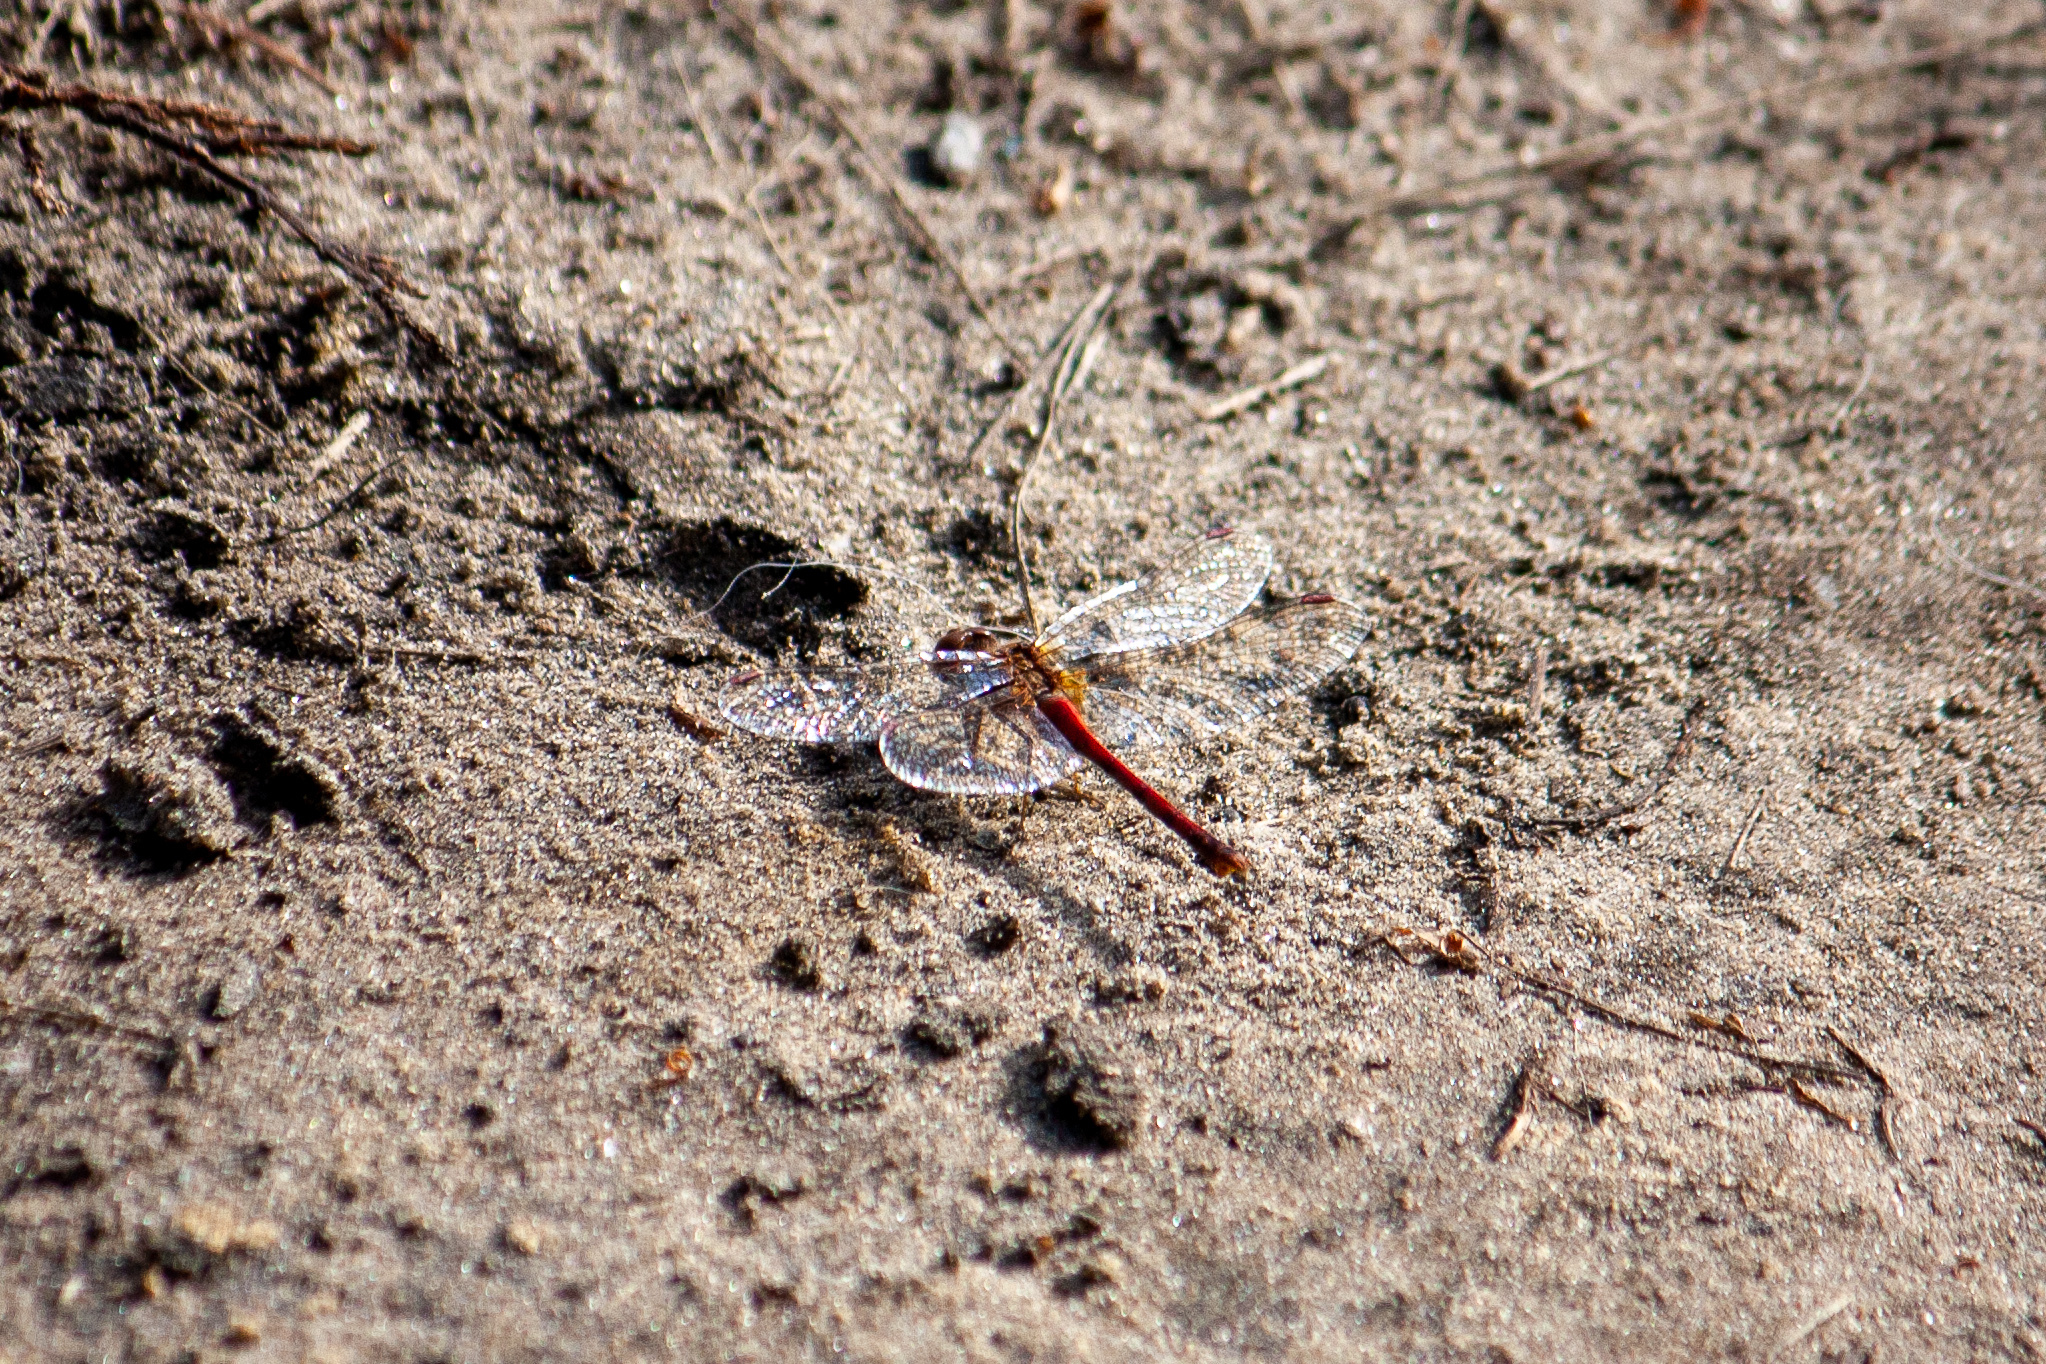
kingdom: Animalia
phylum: Arthropoda
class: Insecta
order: Odonata
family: Libellulidae
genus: Sympetrum
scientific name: Sympetrum vicinum
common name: Autumn meadowhawk
